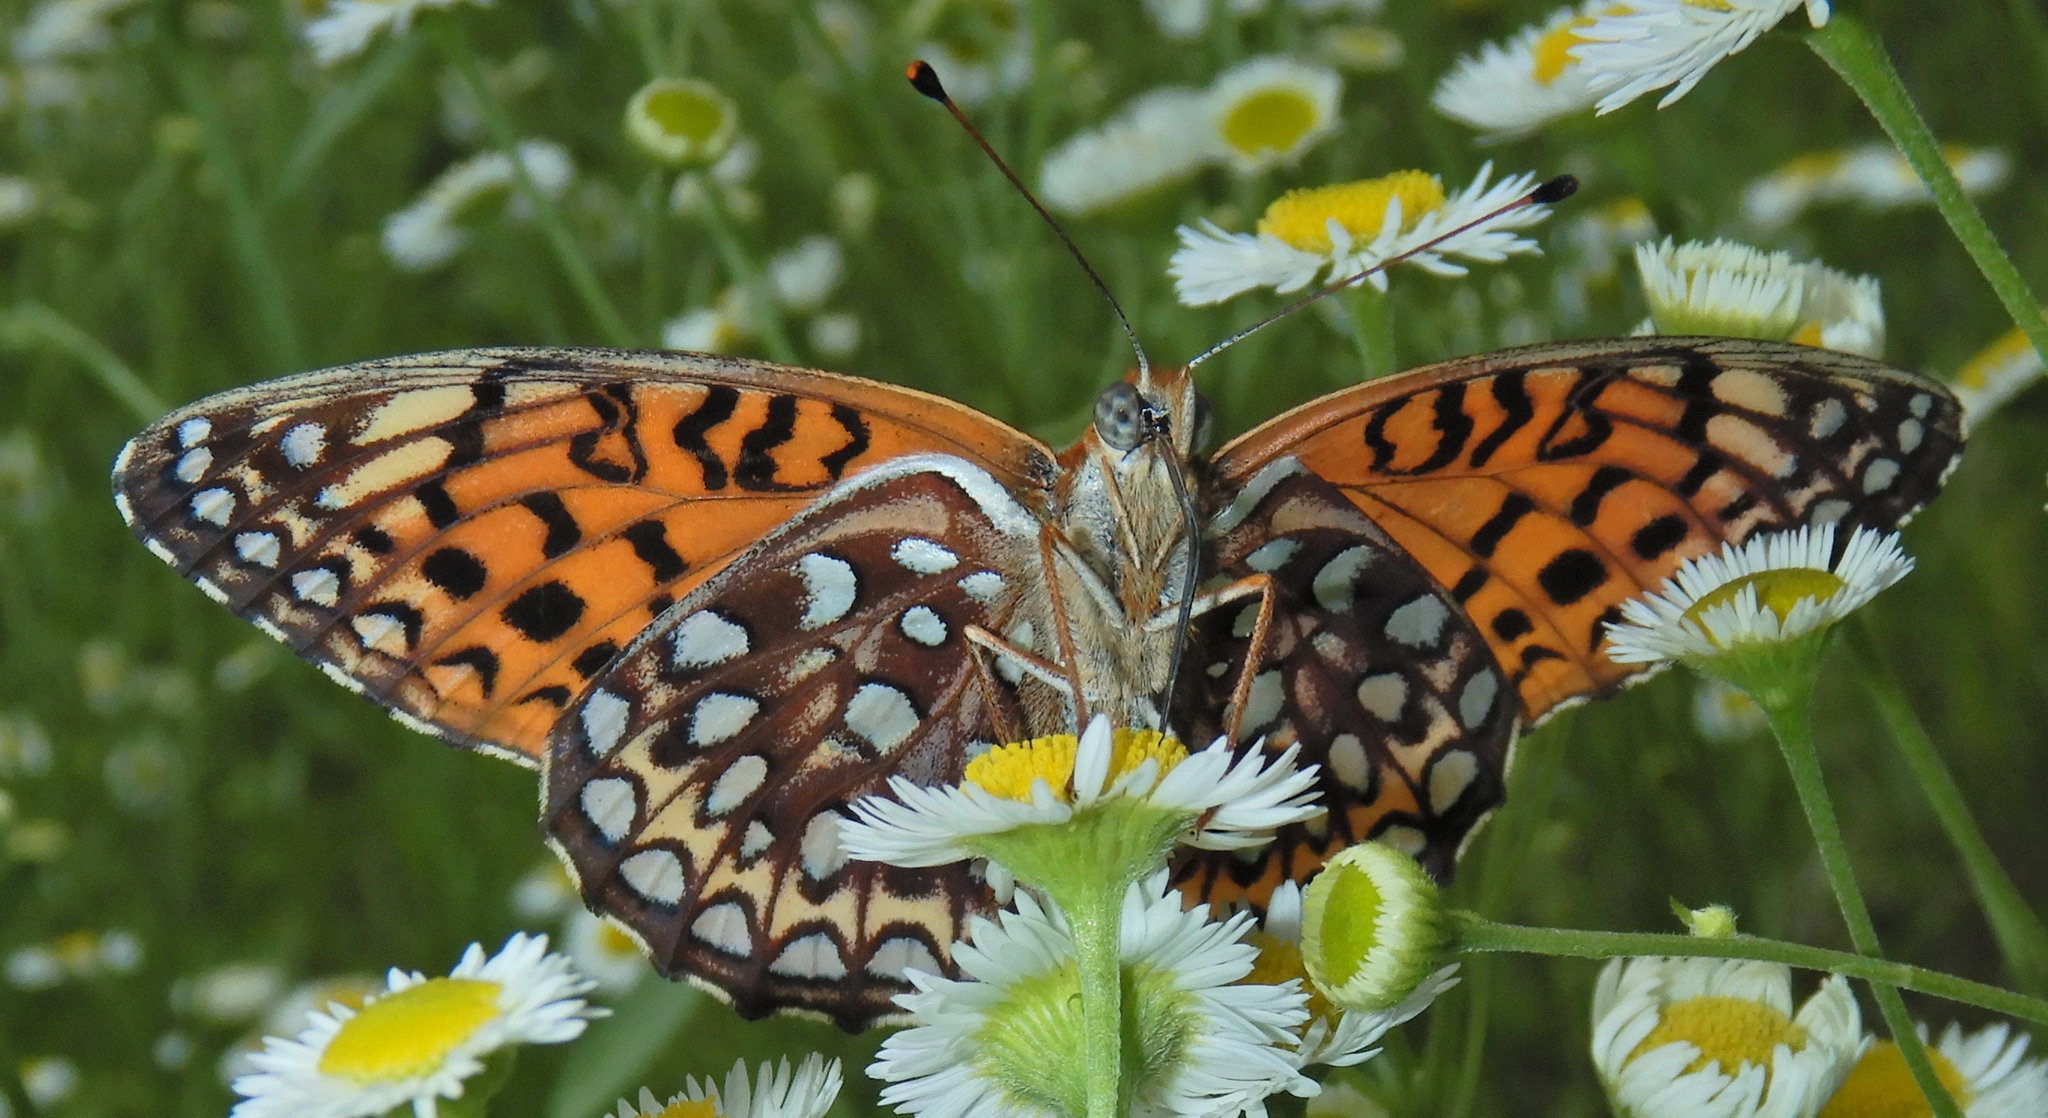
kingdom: Animalia
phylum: Arthropoda
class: Insecta
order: Lepidoptera
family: Nymphalidae
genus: Speyeria
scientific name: Speyeria atlantis
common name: Atlantis fritillary
